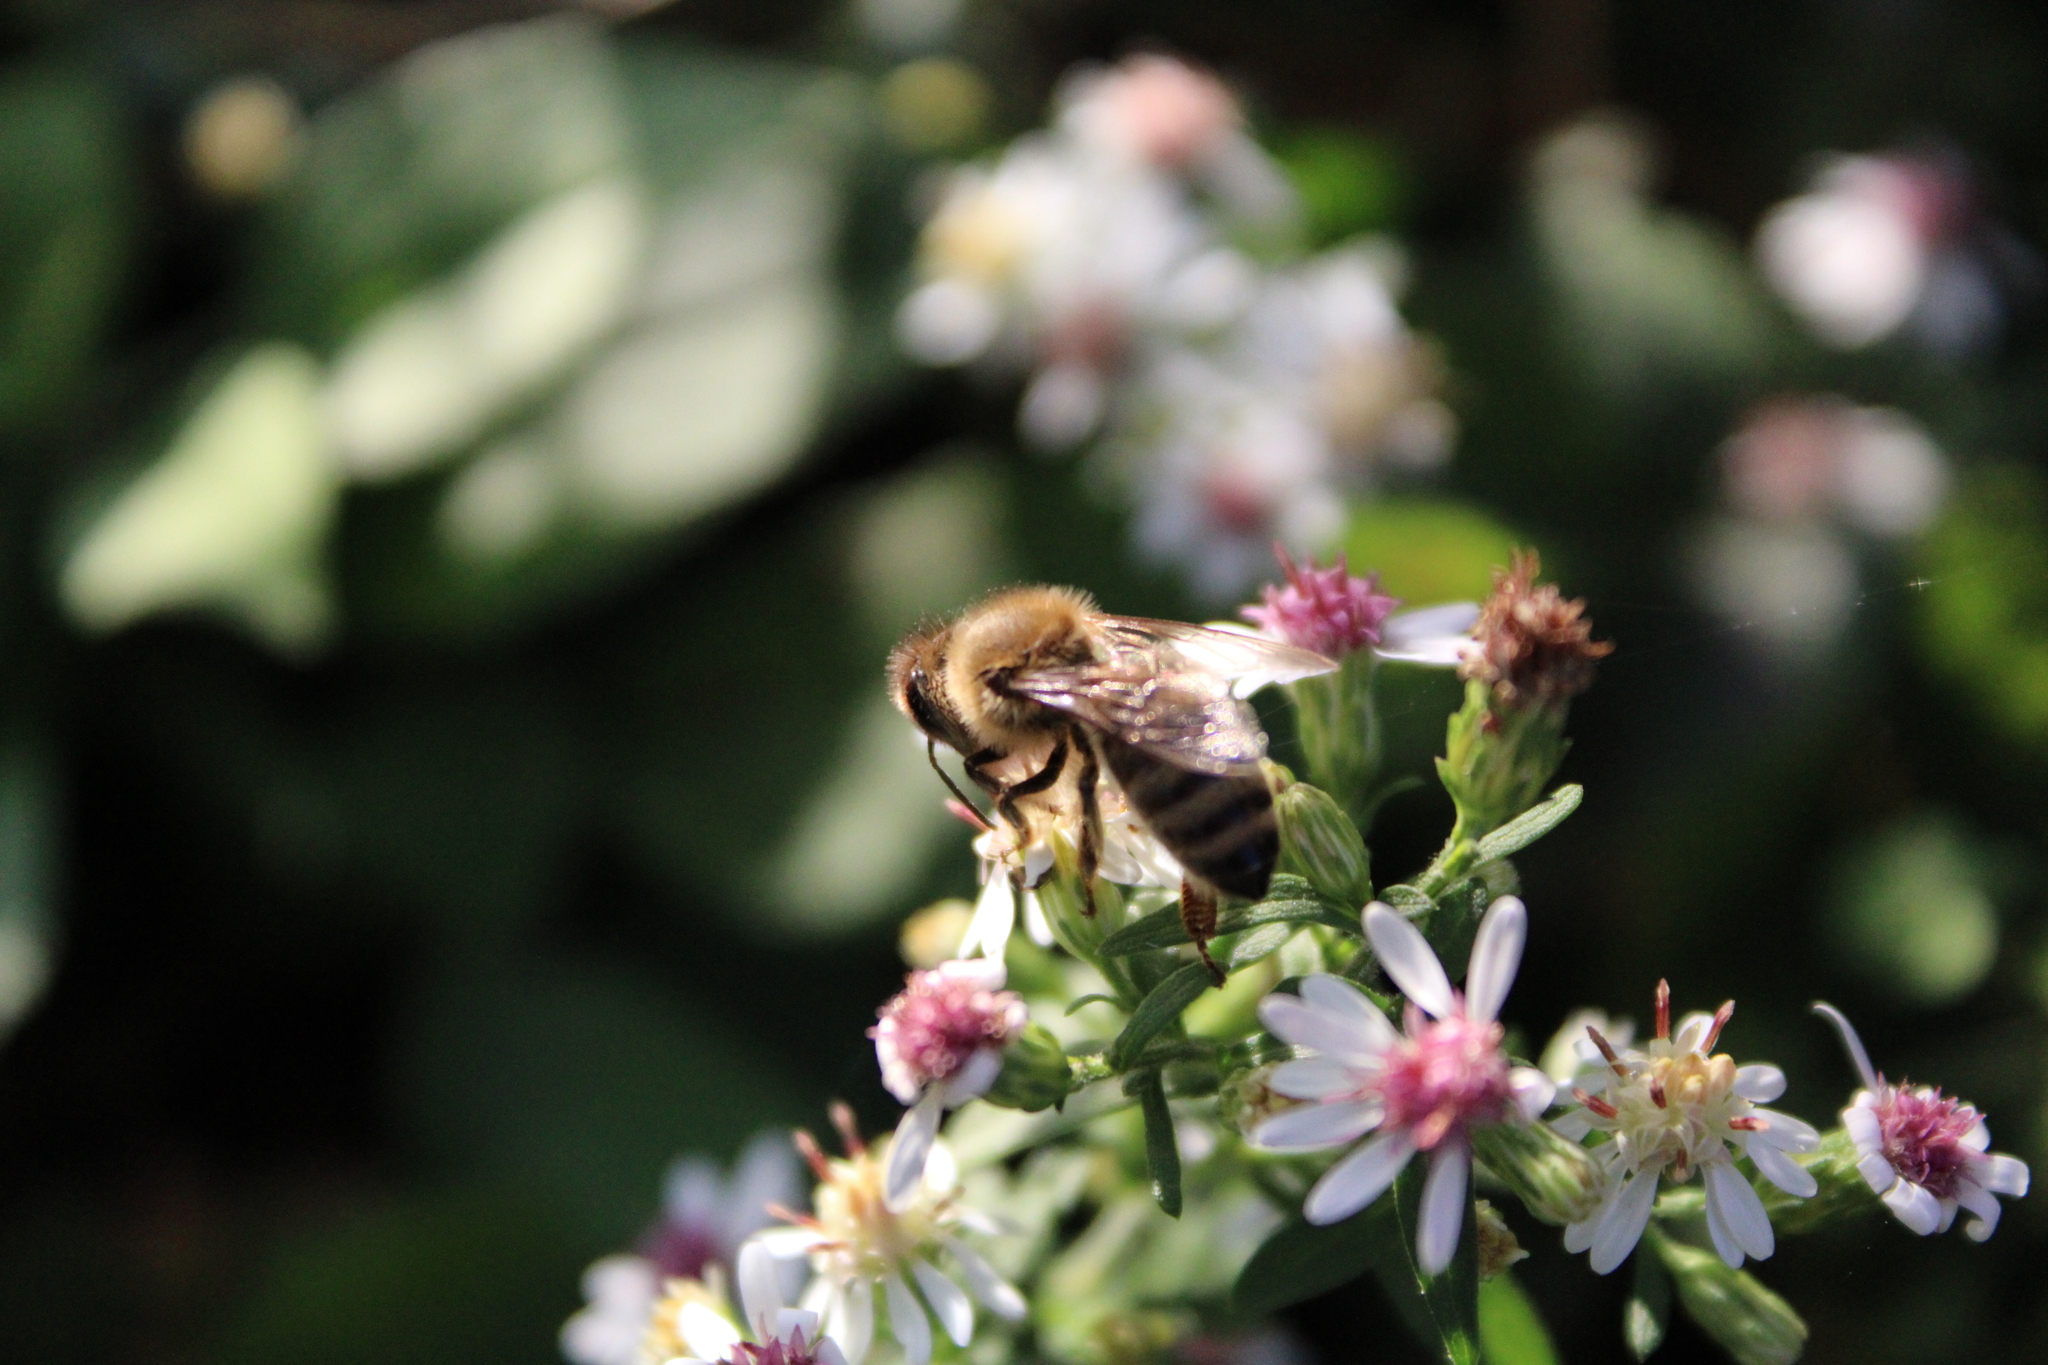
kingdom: Animalia
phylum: Arthropoda
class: Insecta
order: Hymenoptera
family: Apidae
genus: Apis
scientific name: Apis mellifera
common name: Honey bee
